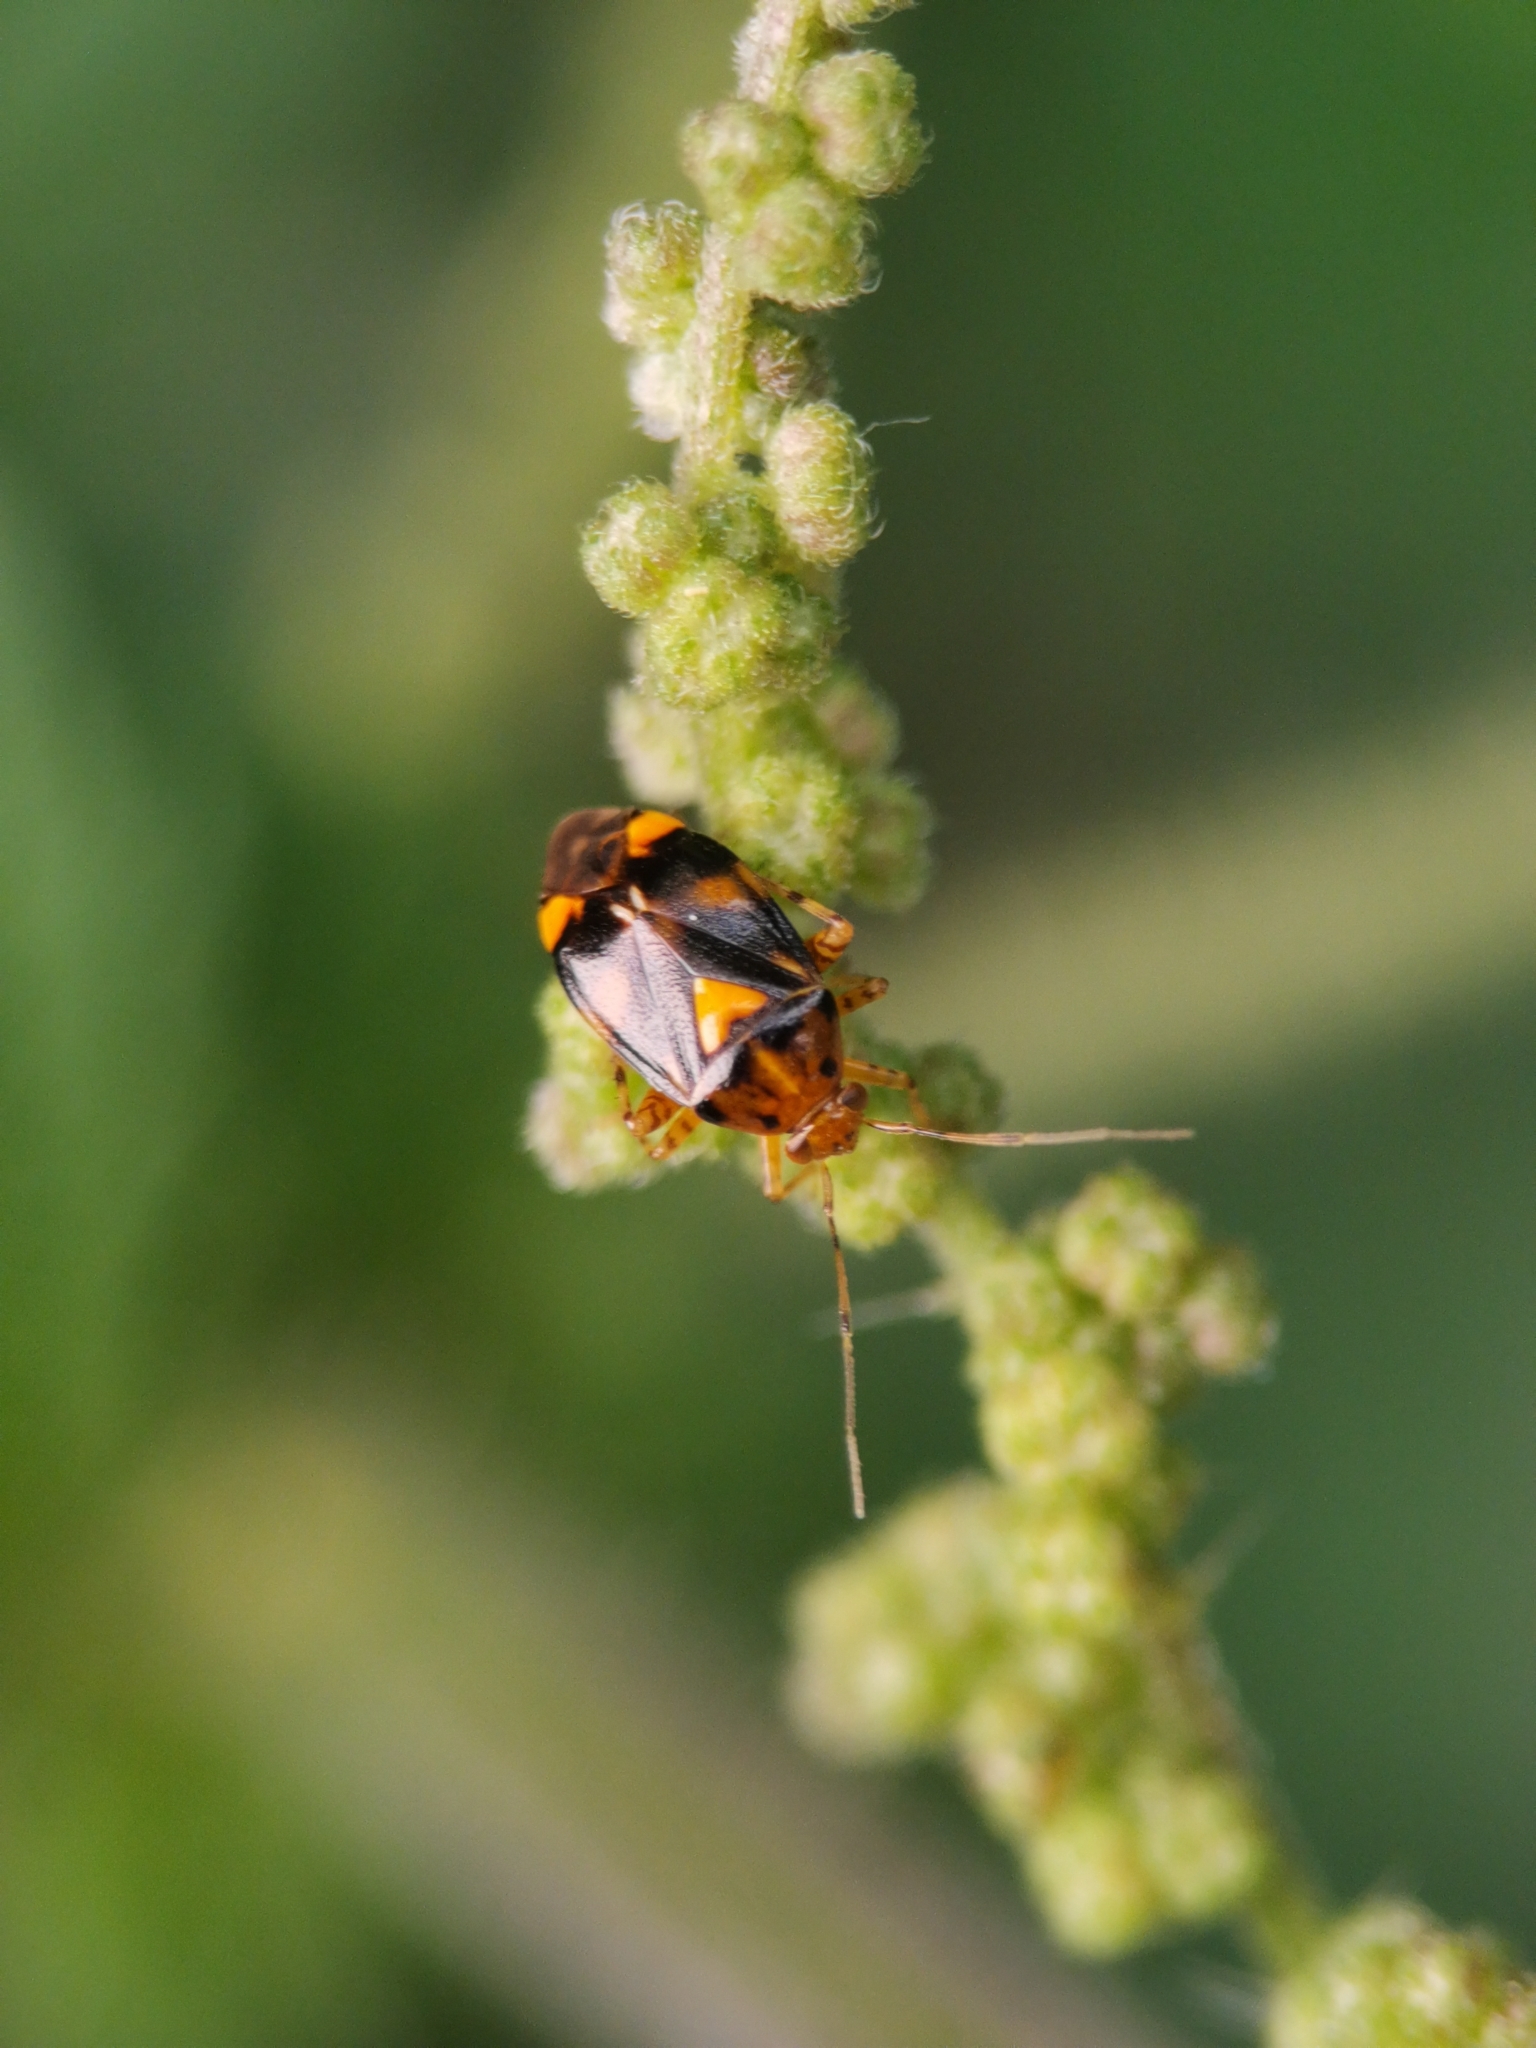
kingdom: Animalia
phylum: Arthropoda
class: Insecta
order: Hemiptera
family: Miridae
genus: Liocoris
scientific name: Liocoris tripustulatus
